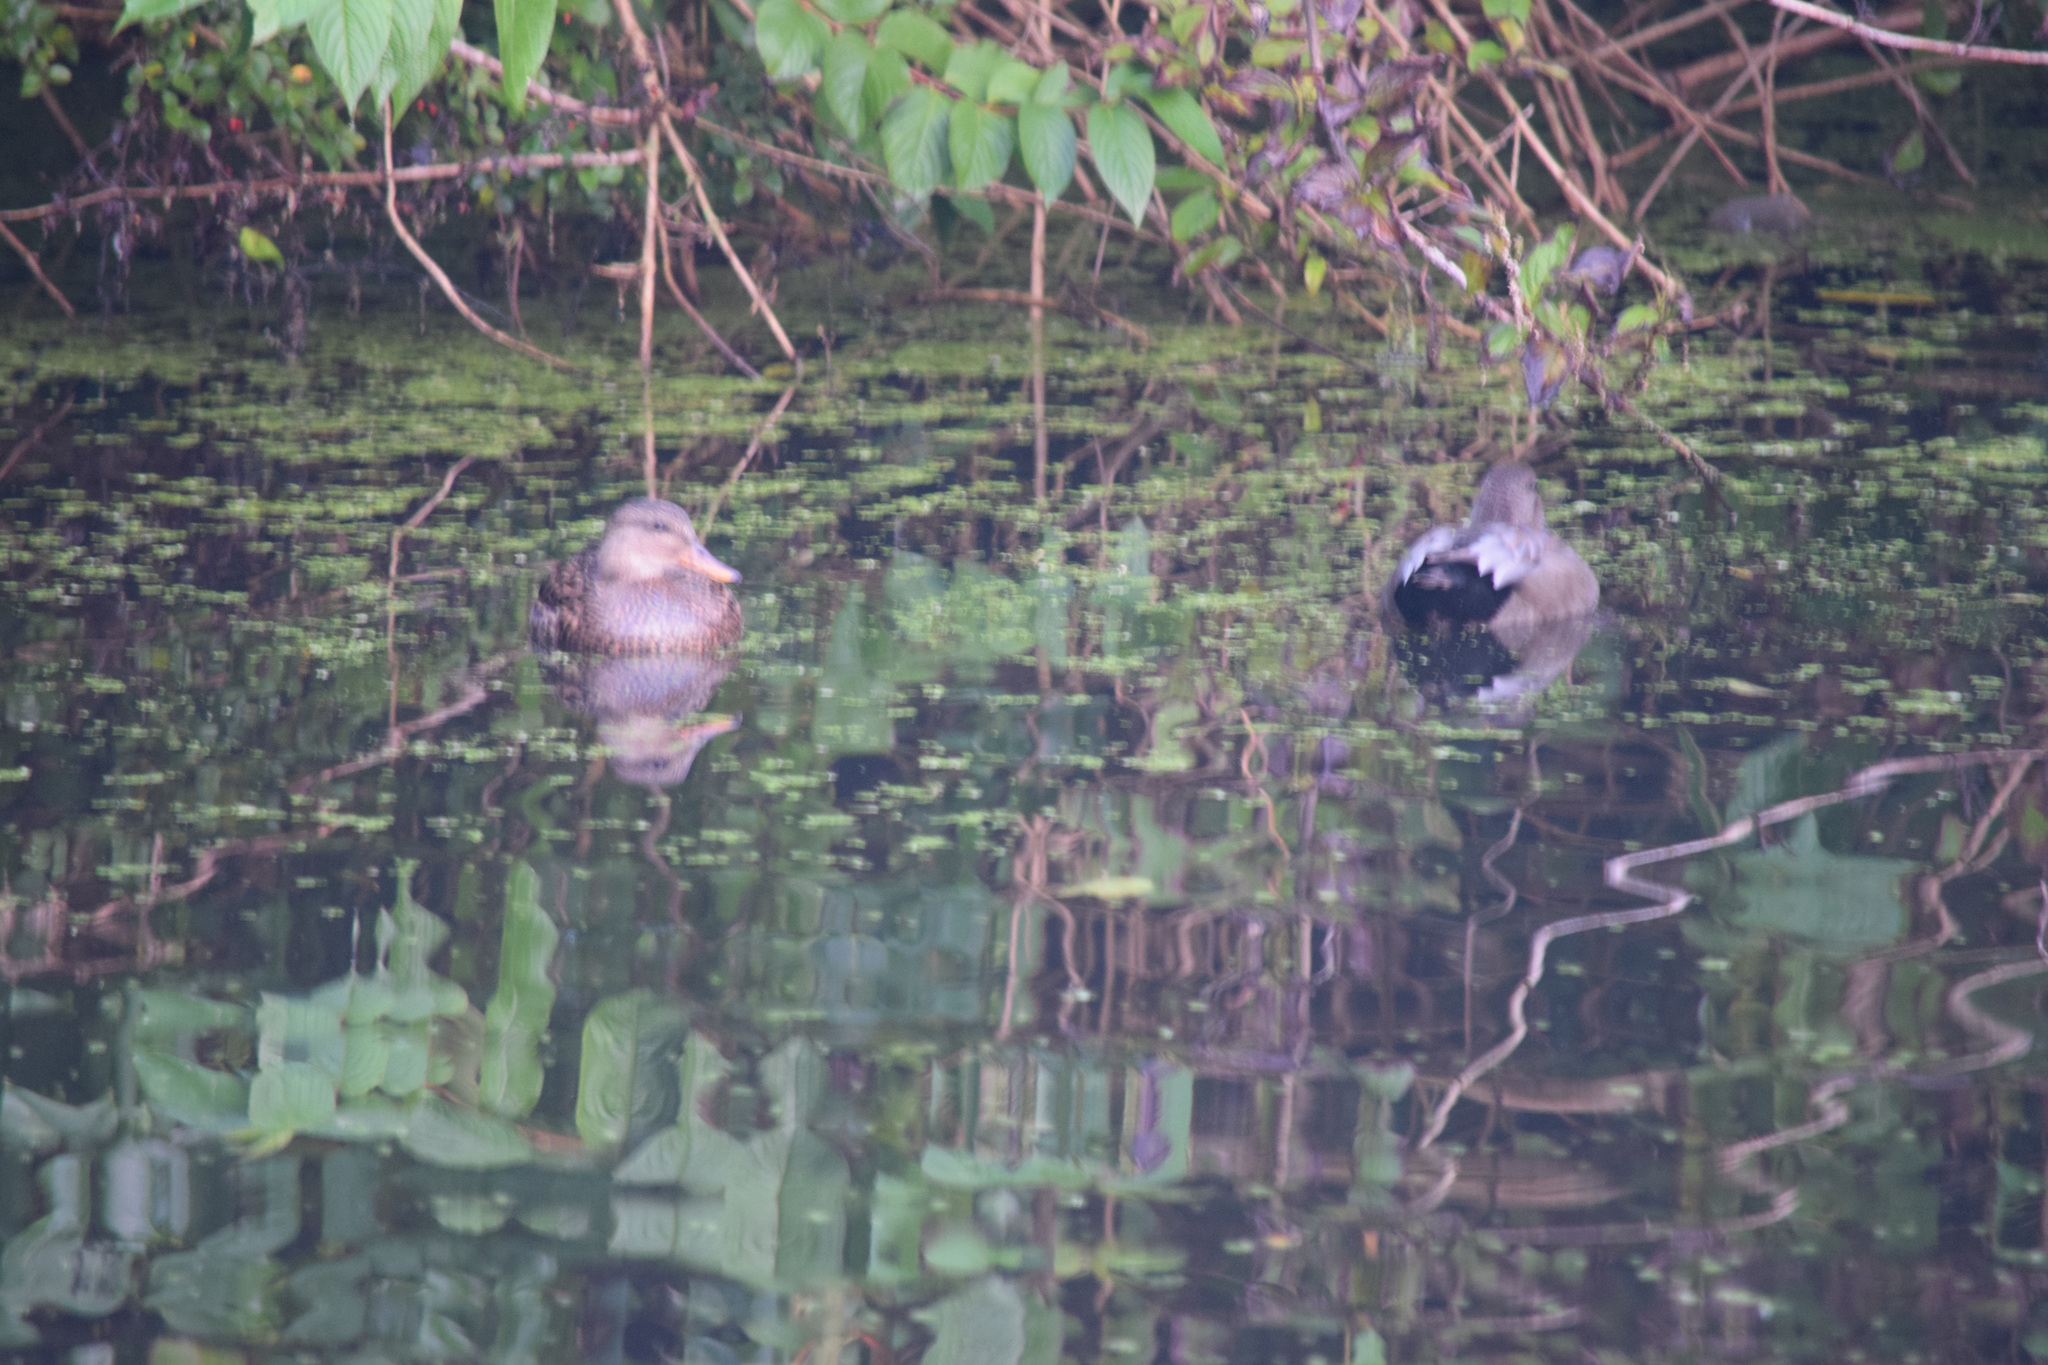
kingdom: Animalia
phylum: Chordata
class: Aves
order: Anseriformes
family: Anatidae
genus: Mareca
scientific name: Mareca strepera
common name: Gadwall
